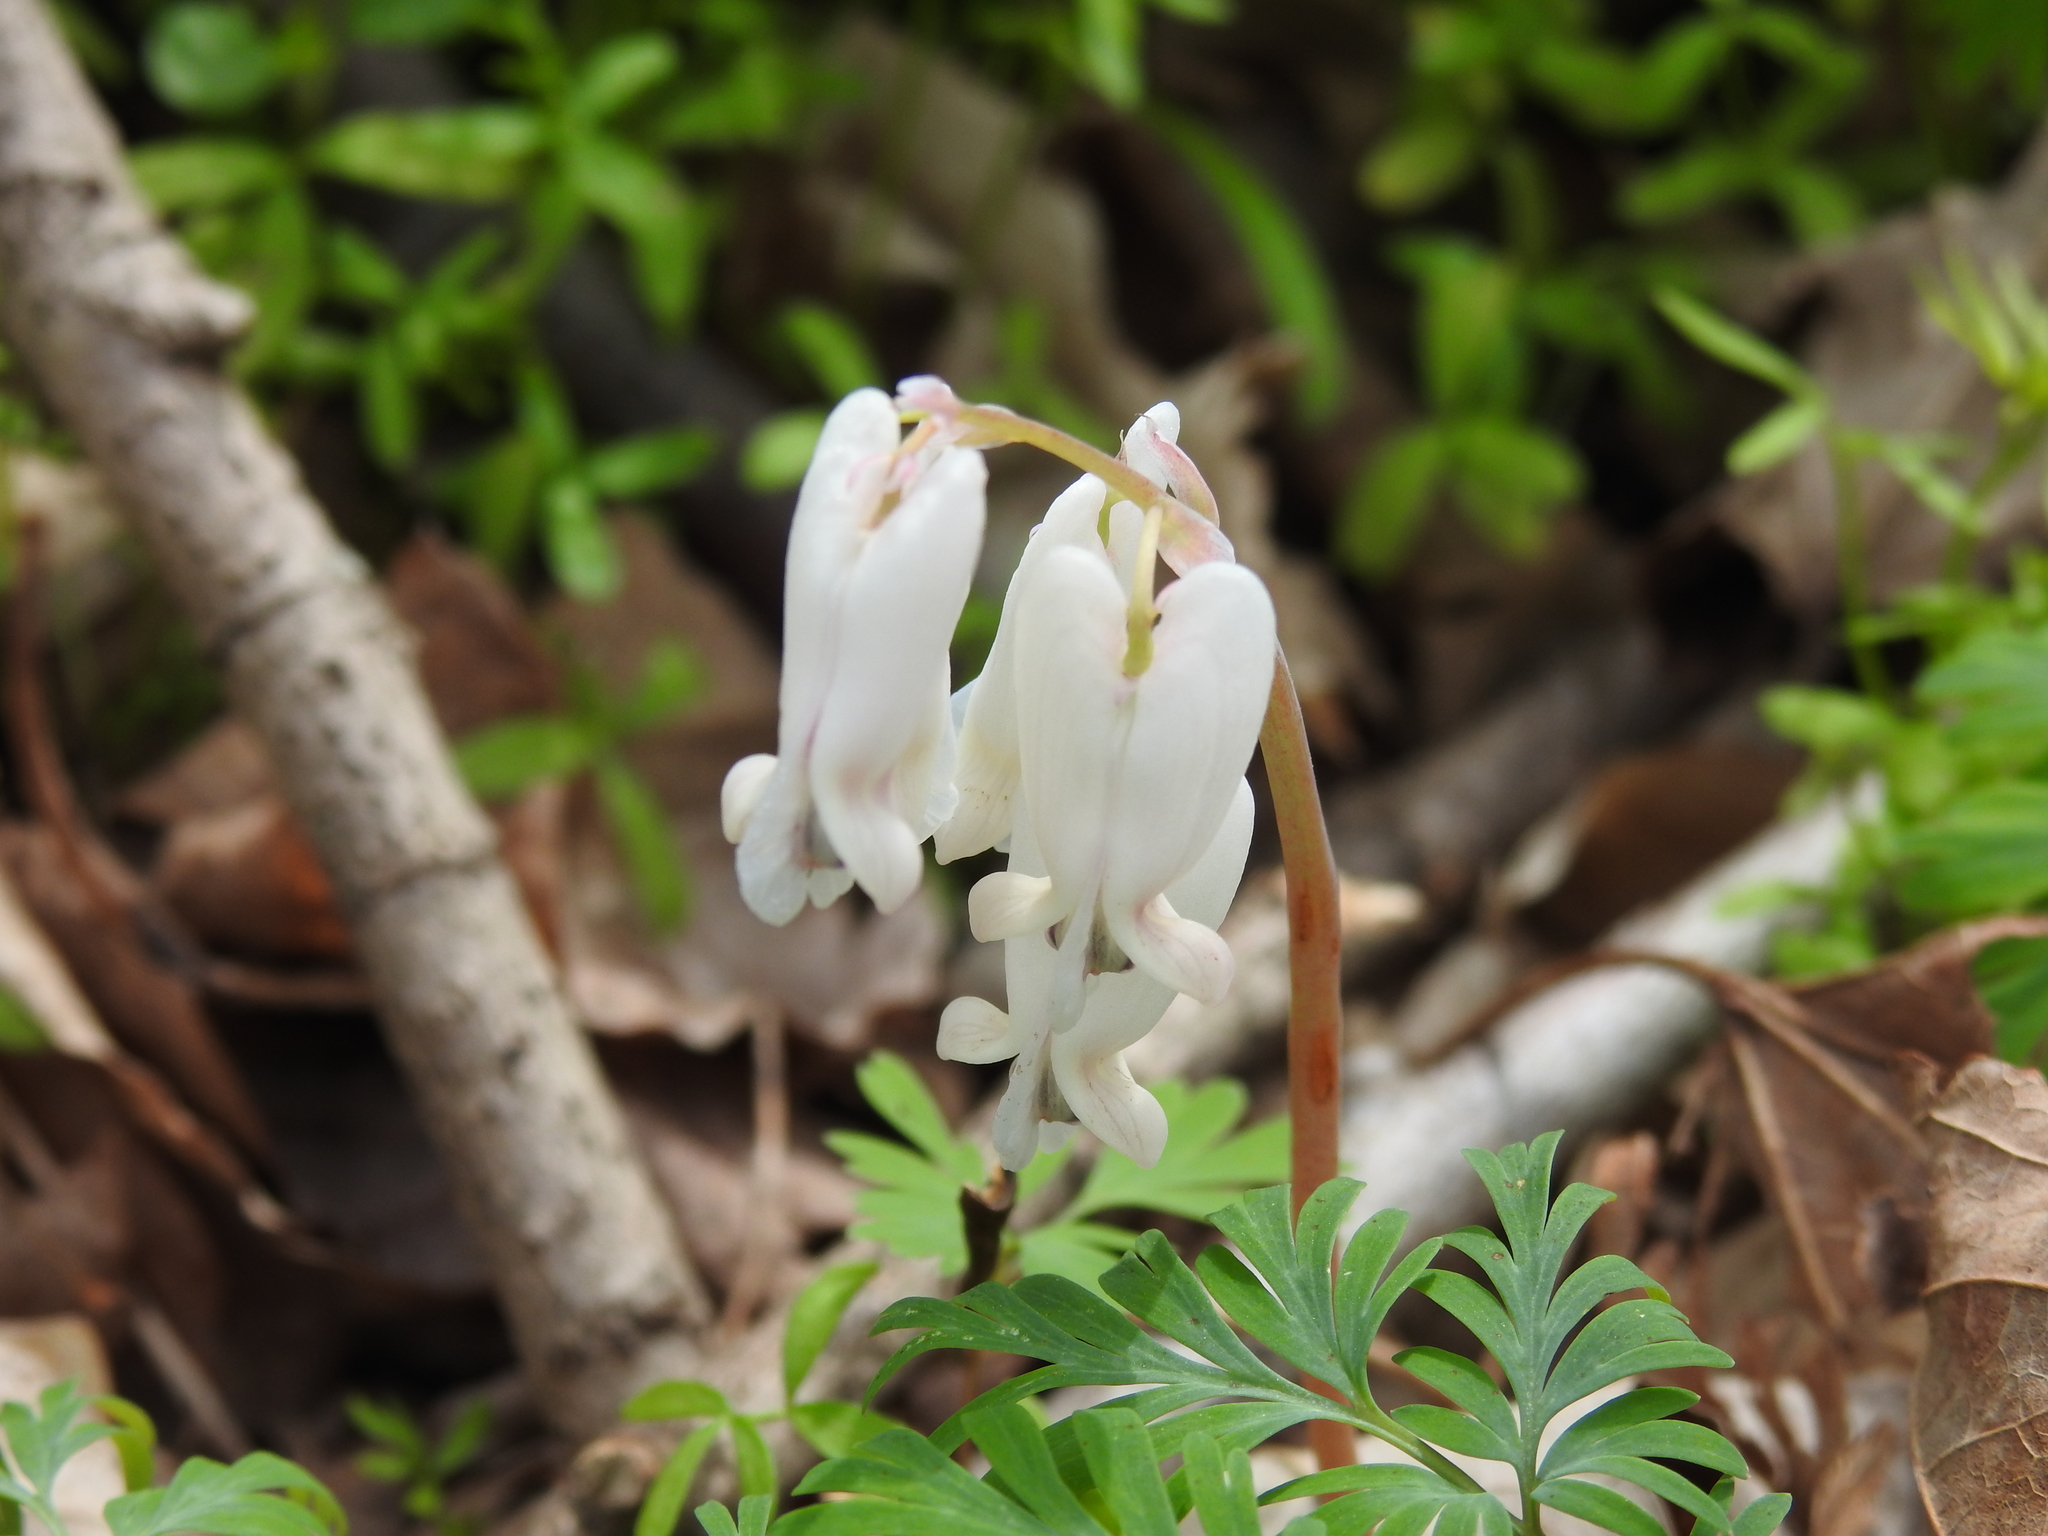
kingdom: Plantae
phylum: Tracheophyta
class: Magnoliopsida
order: Ranunculales
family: Papaveraceae
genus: Dicentra
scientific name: Dicentra canadensis
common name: Squirrel-corn
